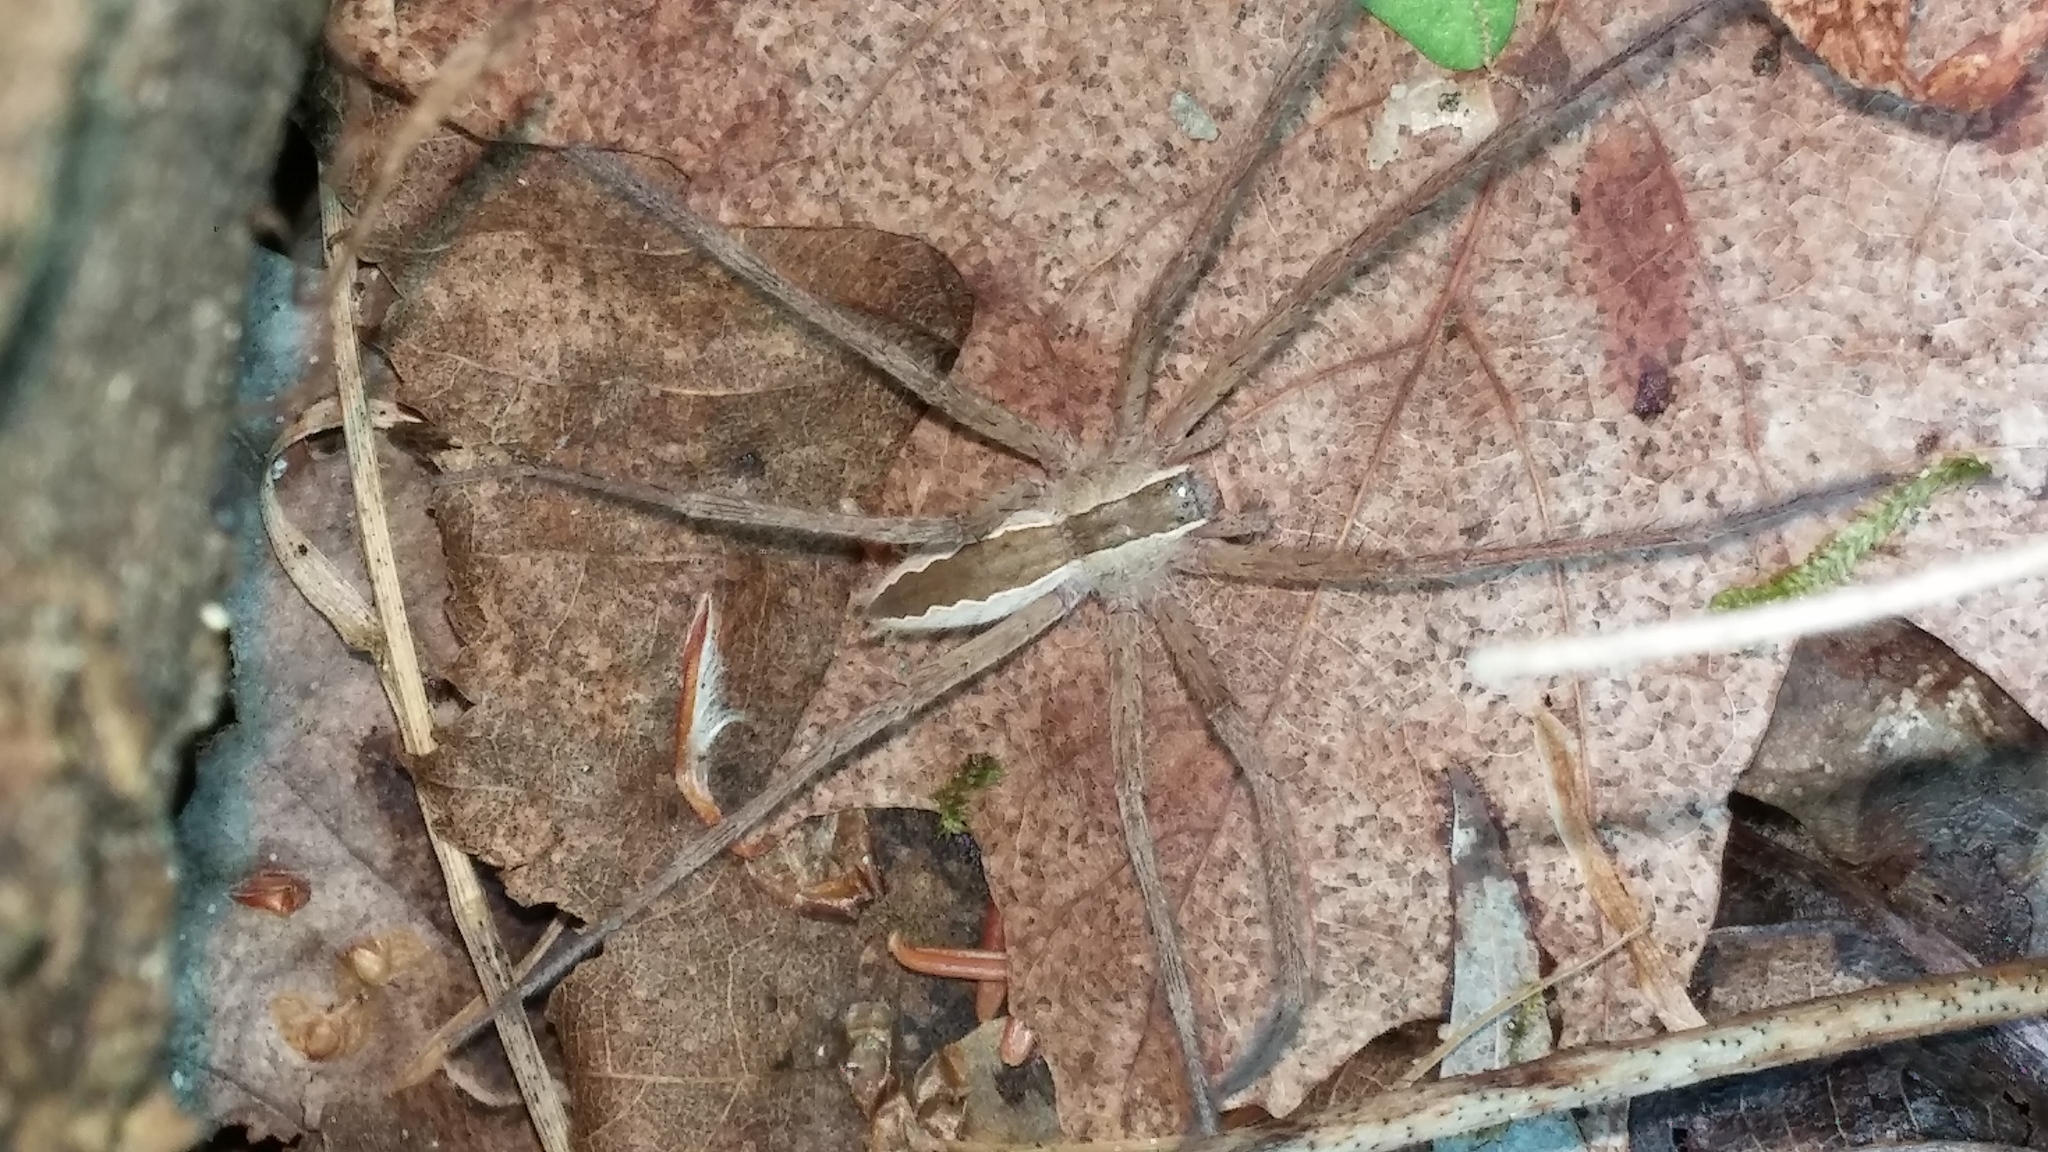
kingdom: Animalia
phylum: Arthropoda
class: Arachnida
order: Araneae
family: Pisauridae
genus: Pisaurina
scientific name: Pisaurina mira
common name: American nursery web spider
